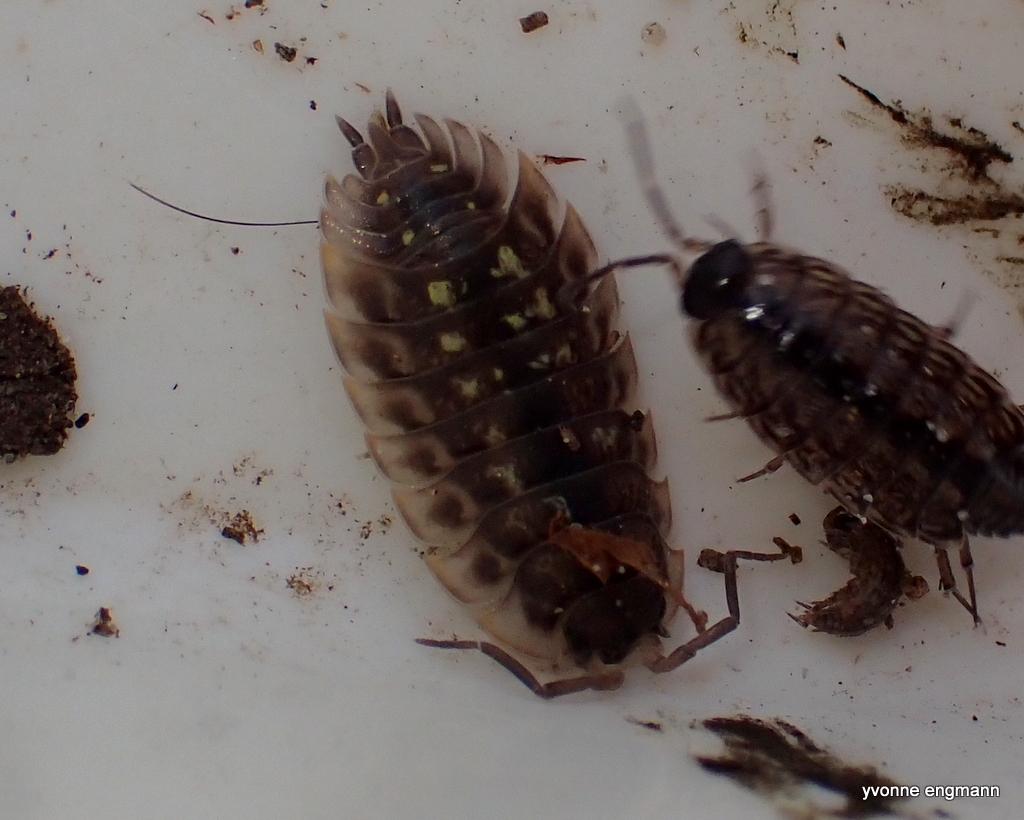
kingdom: Animalia
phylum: Arthropoda
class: Malacostraca
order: Isopoda
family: Oniscidae
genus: Oniscus
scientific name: Oniscus asellus
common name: Common shiny woodlouse
